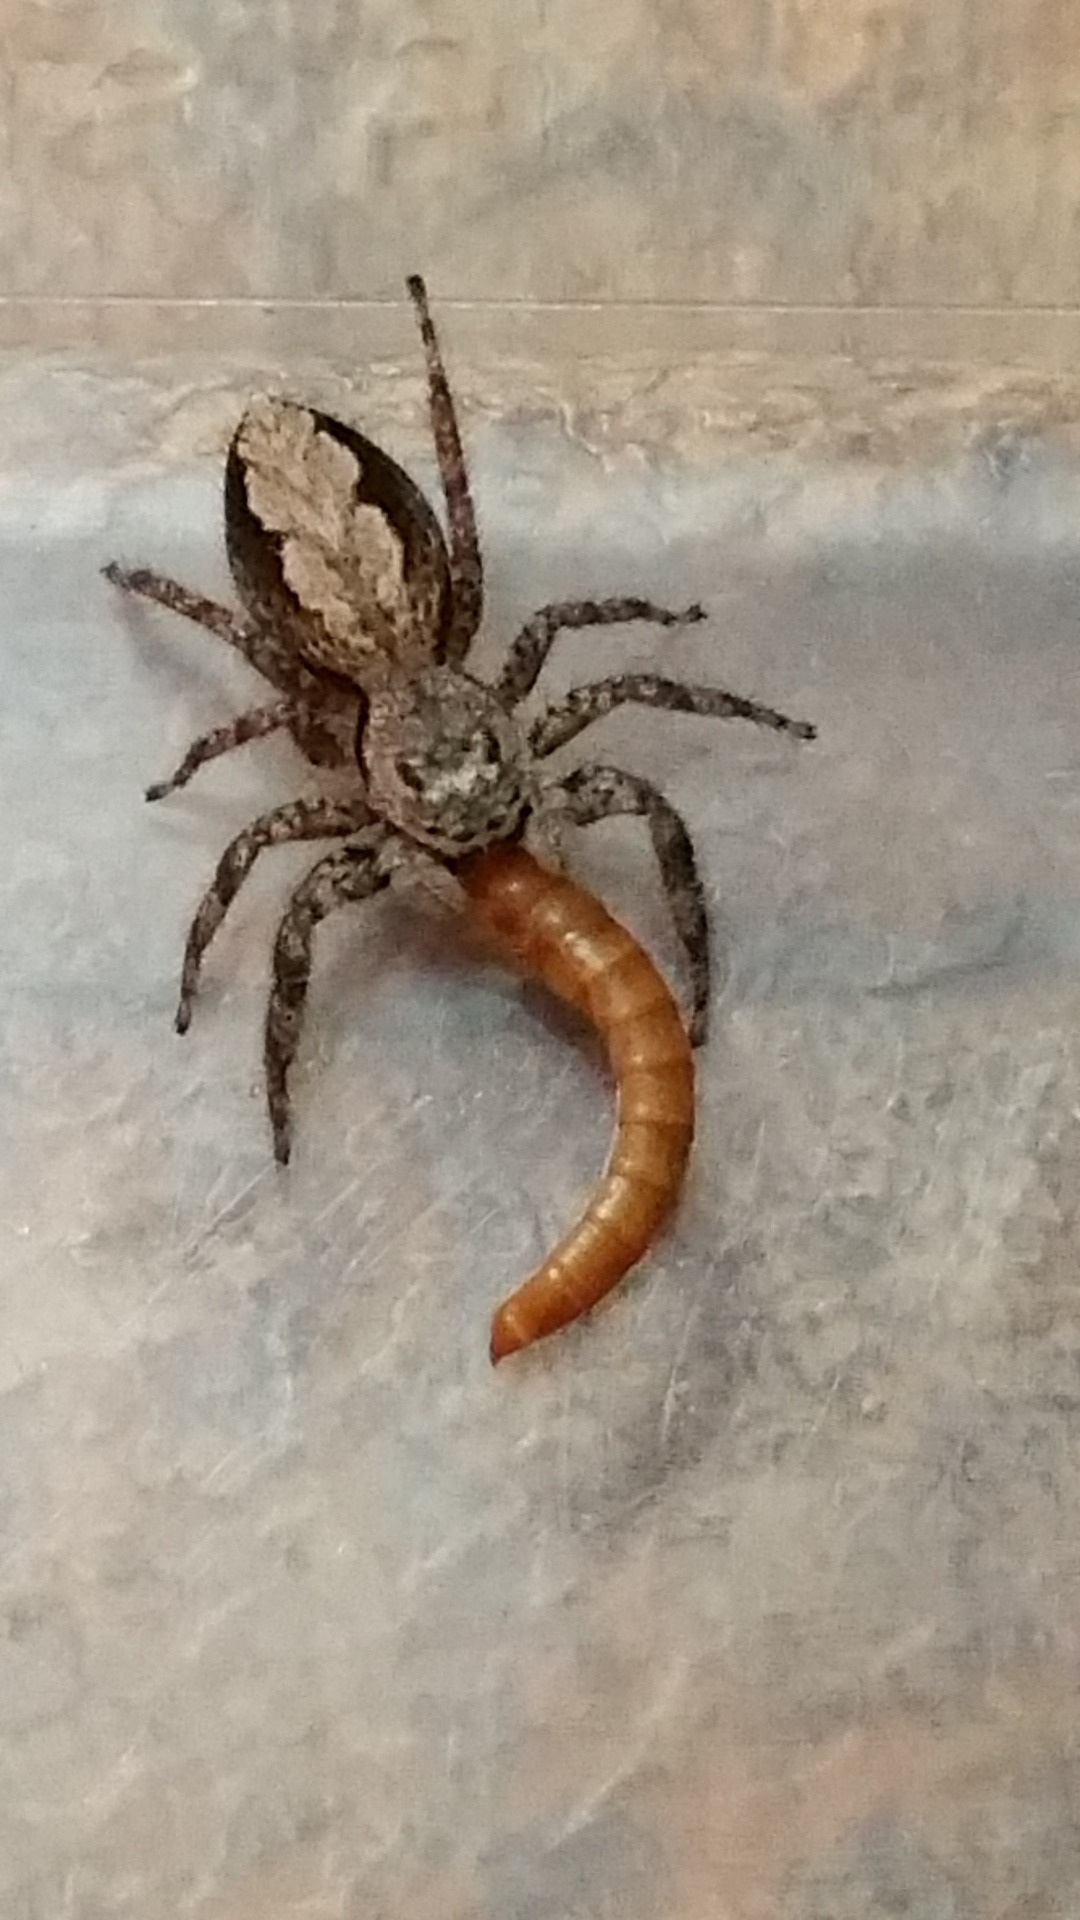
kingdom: Animalia
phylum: Arthropoda
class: Arachnida
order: Araneae
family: Salticidae
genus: Platycryptus
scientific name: Platycryptus undatus
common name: Tan jumping spider
